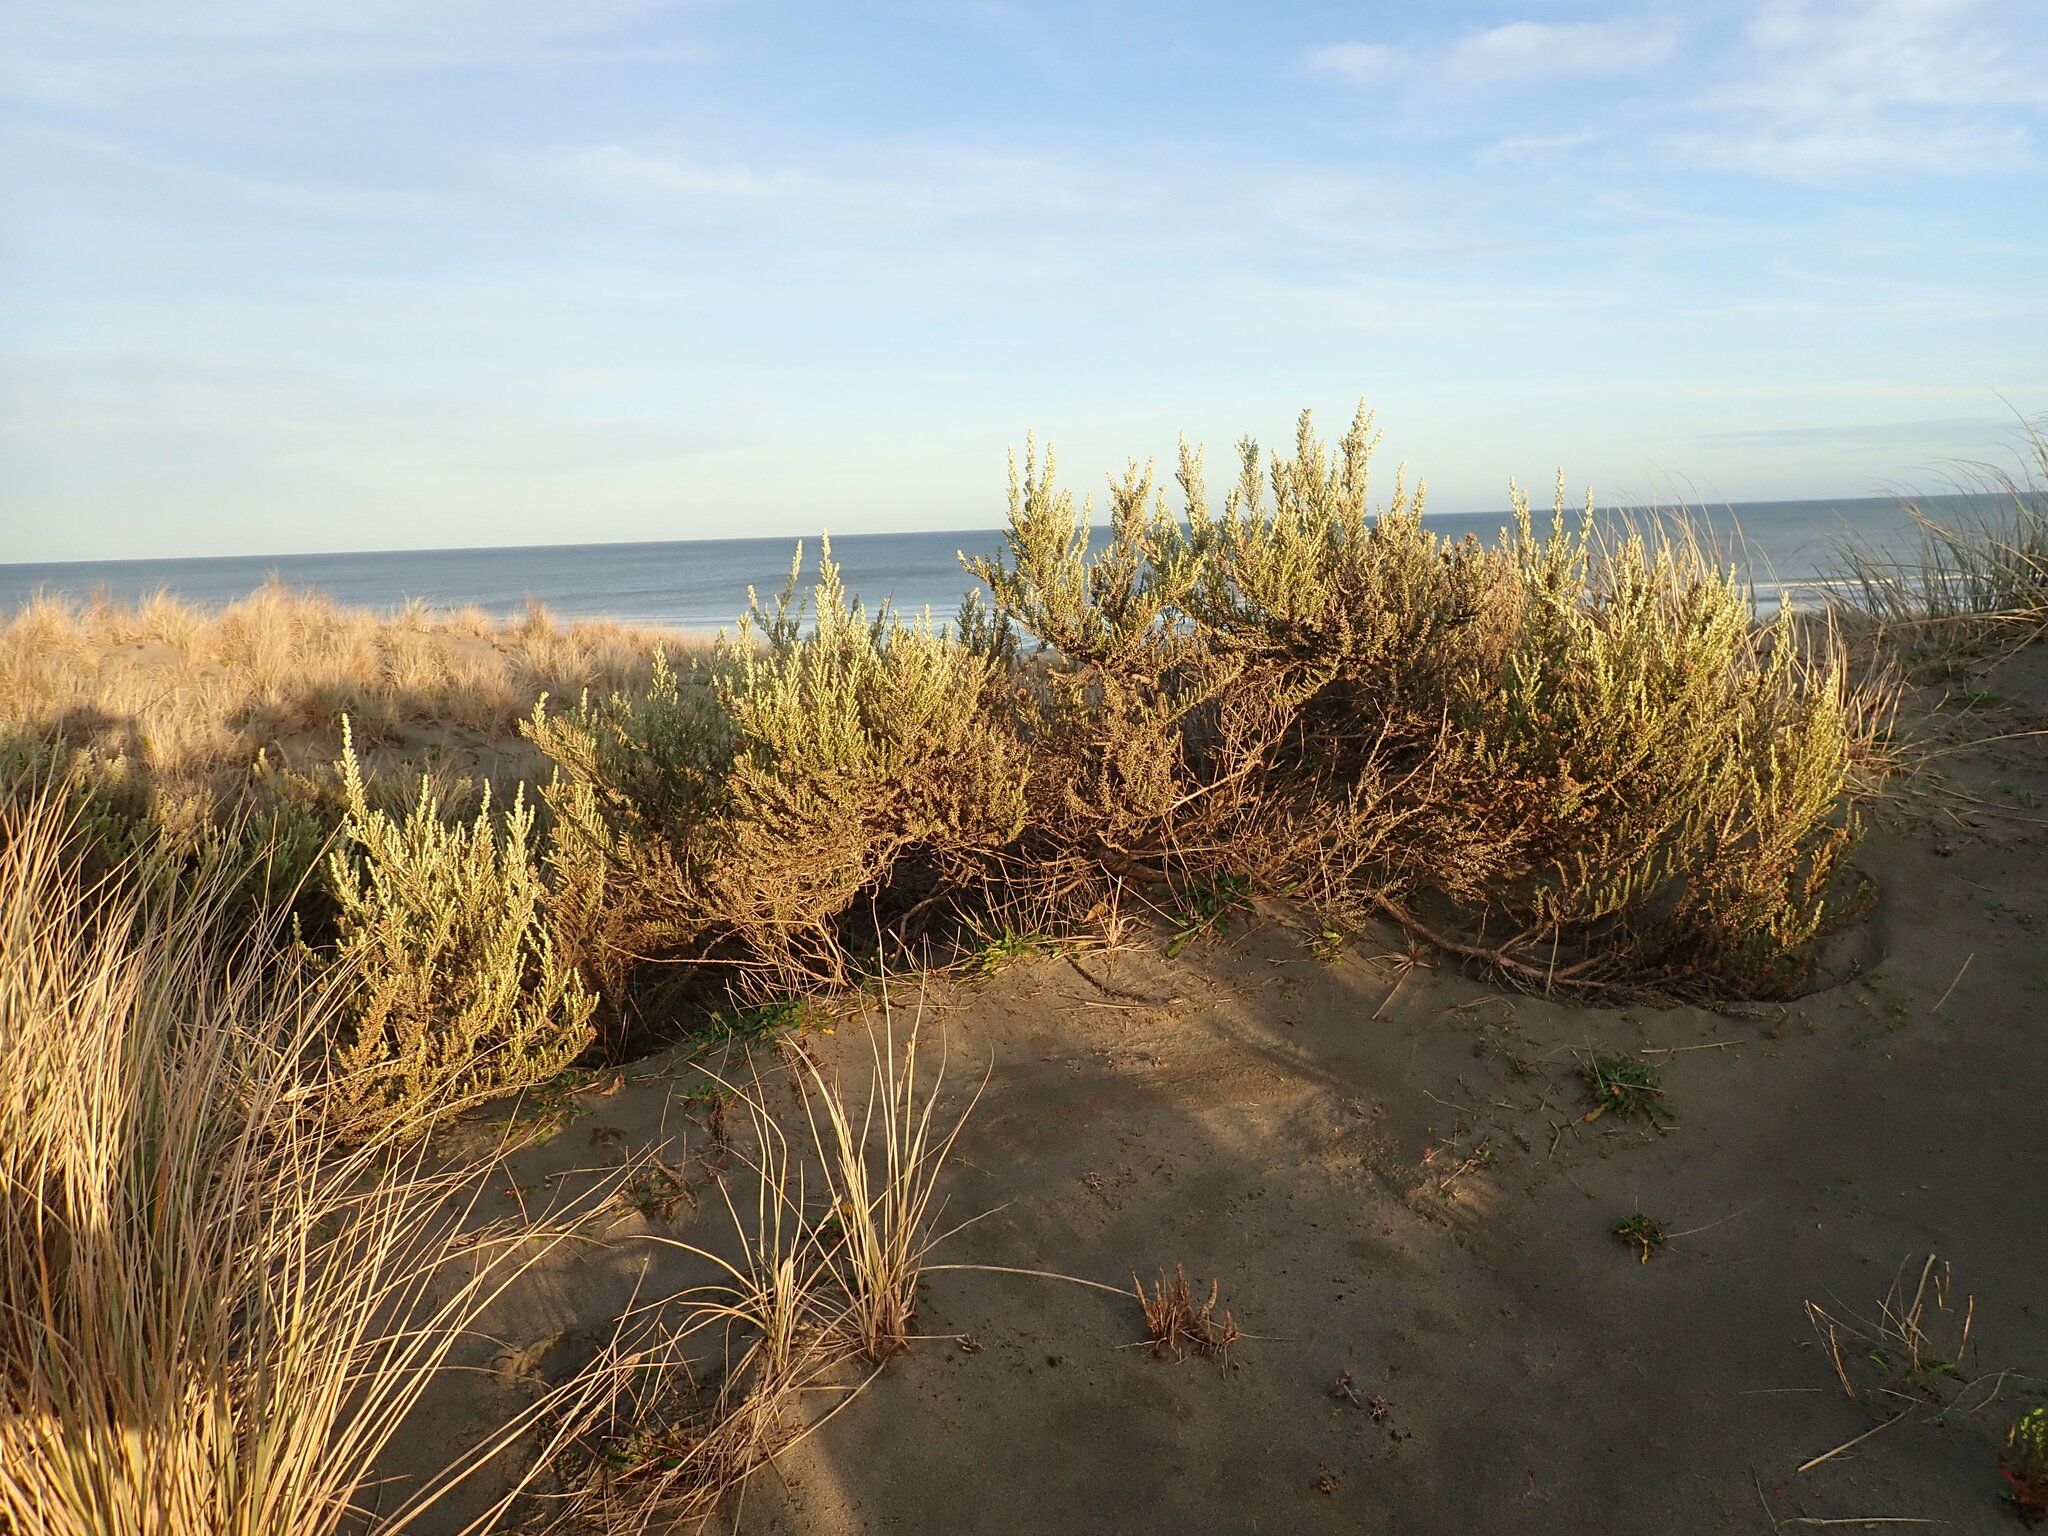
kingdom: Plantae
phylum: Tracheophyta
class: Magnoliopsida
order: Asterales
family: Asteraceae
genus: Ozothamnus
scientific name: Ozothamnus leptophyllus
